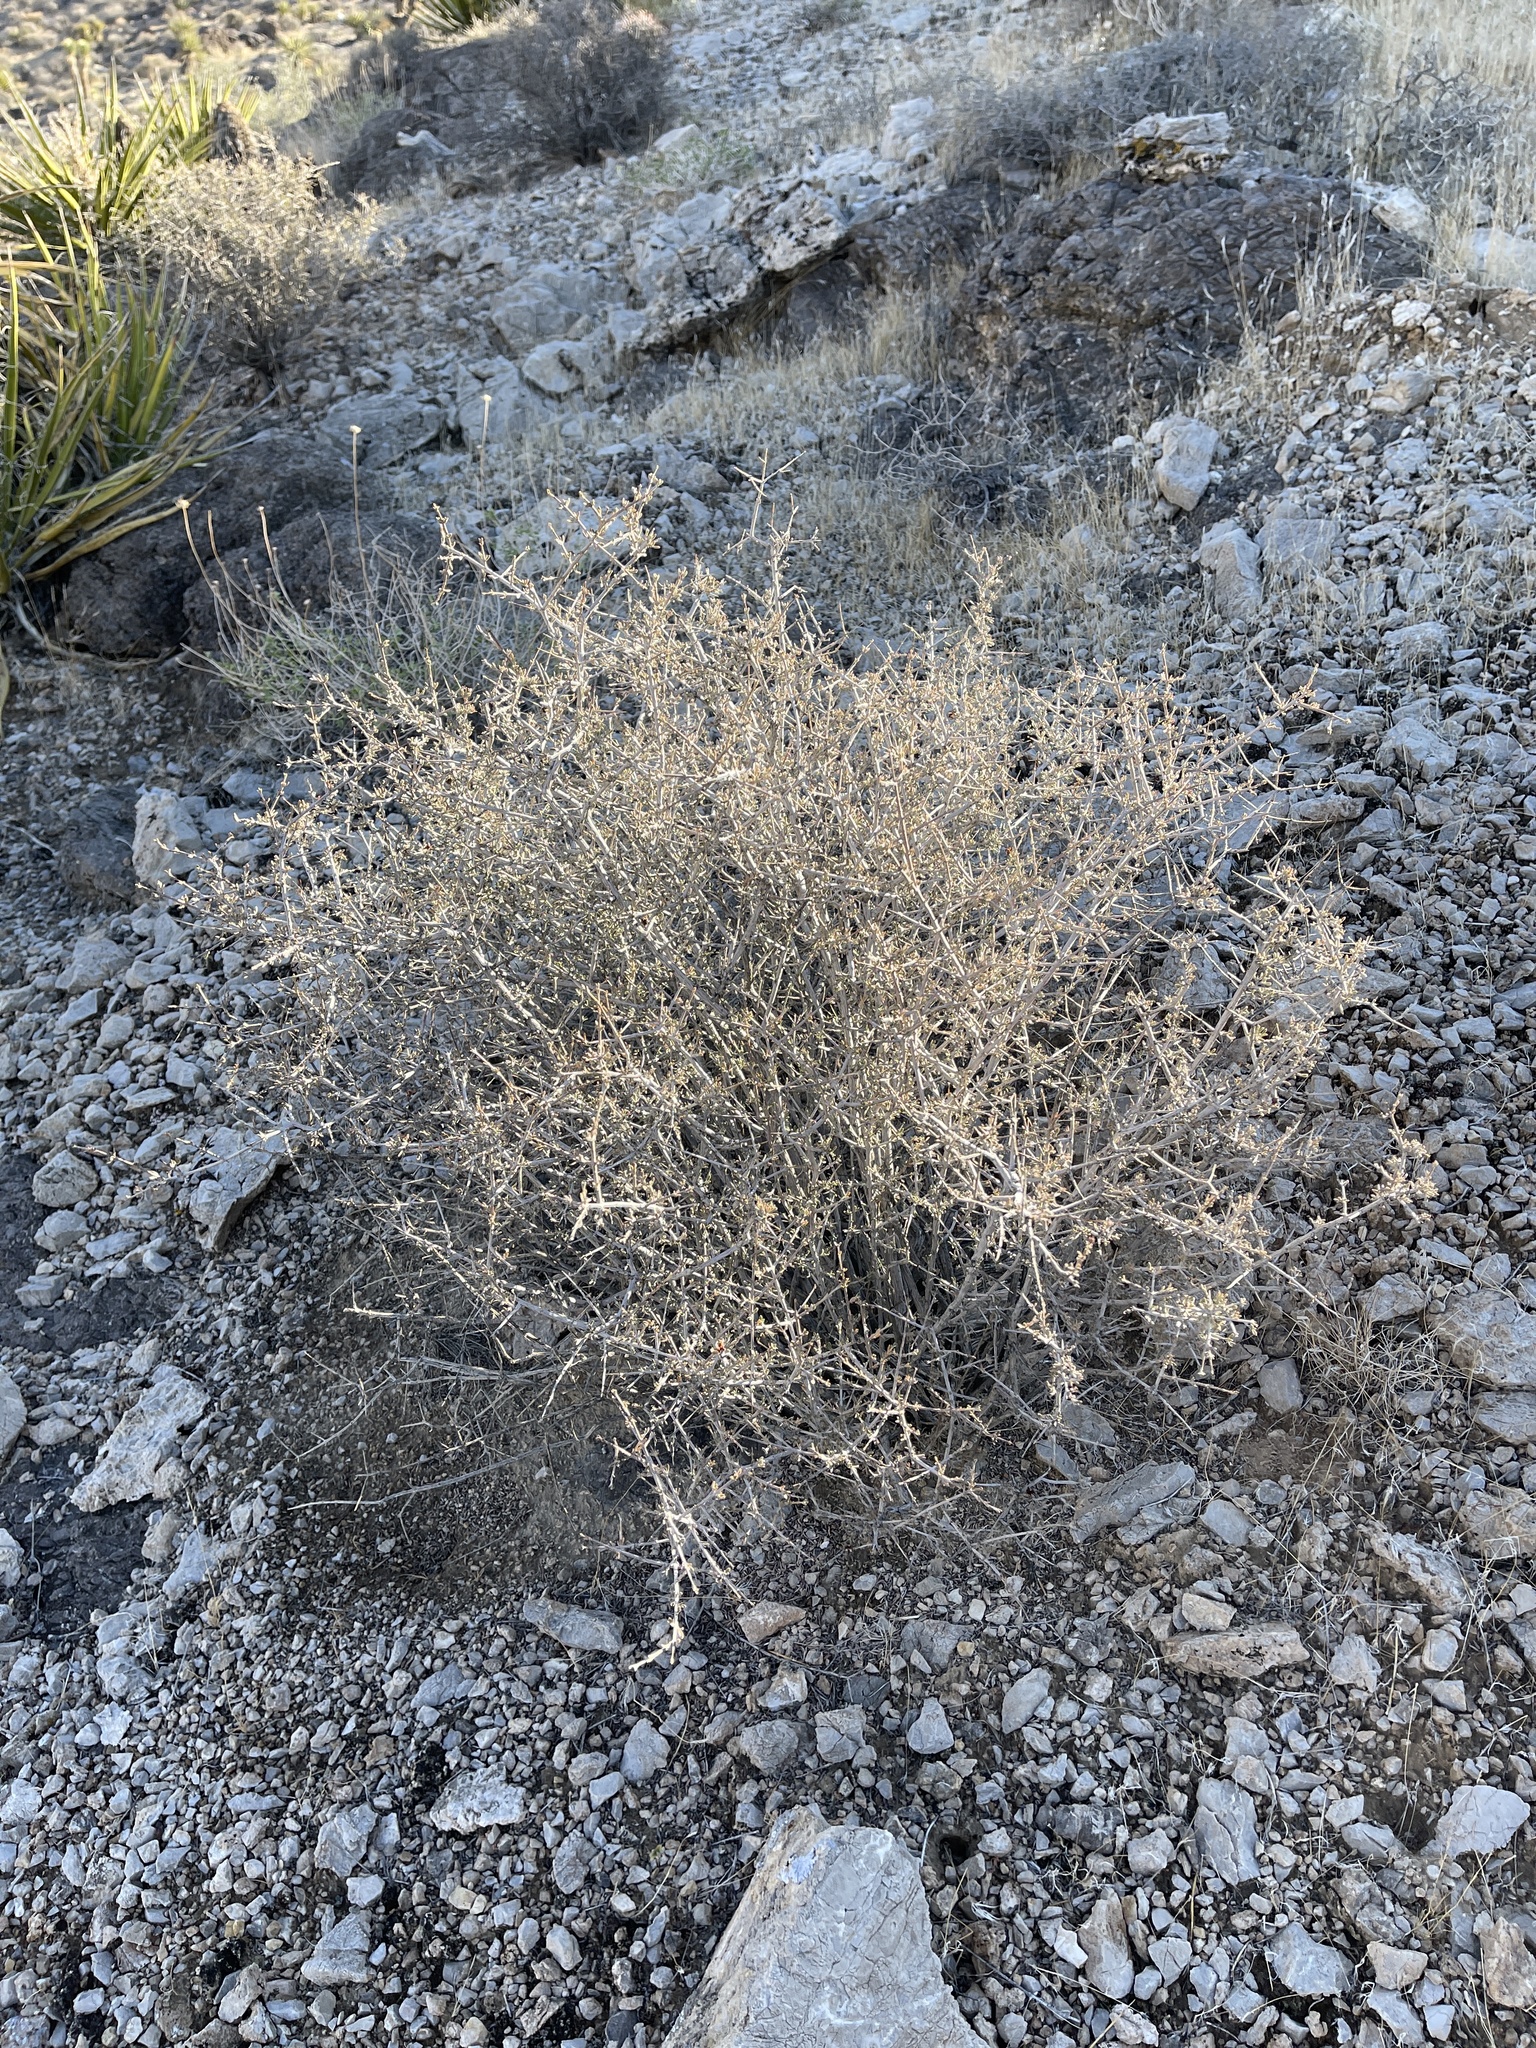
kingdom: Plantae
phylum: Tracheophyta
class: Magnoliopsida
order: Rosales
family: Rosaceae
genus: Coleogyne
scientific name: Coleogyne ramosissima
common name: Blackbrush
